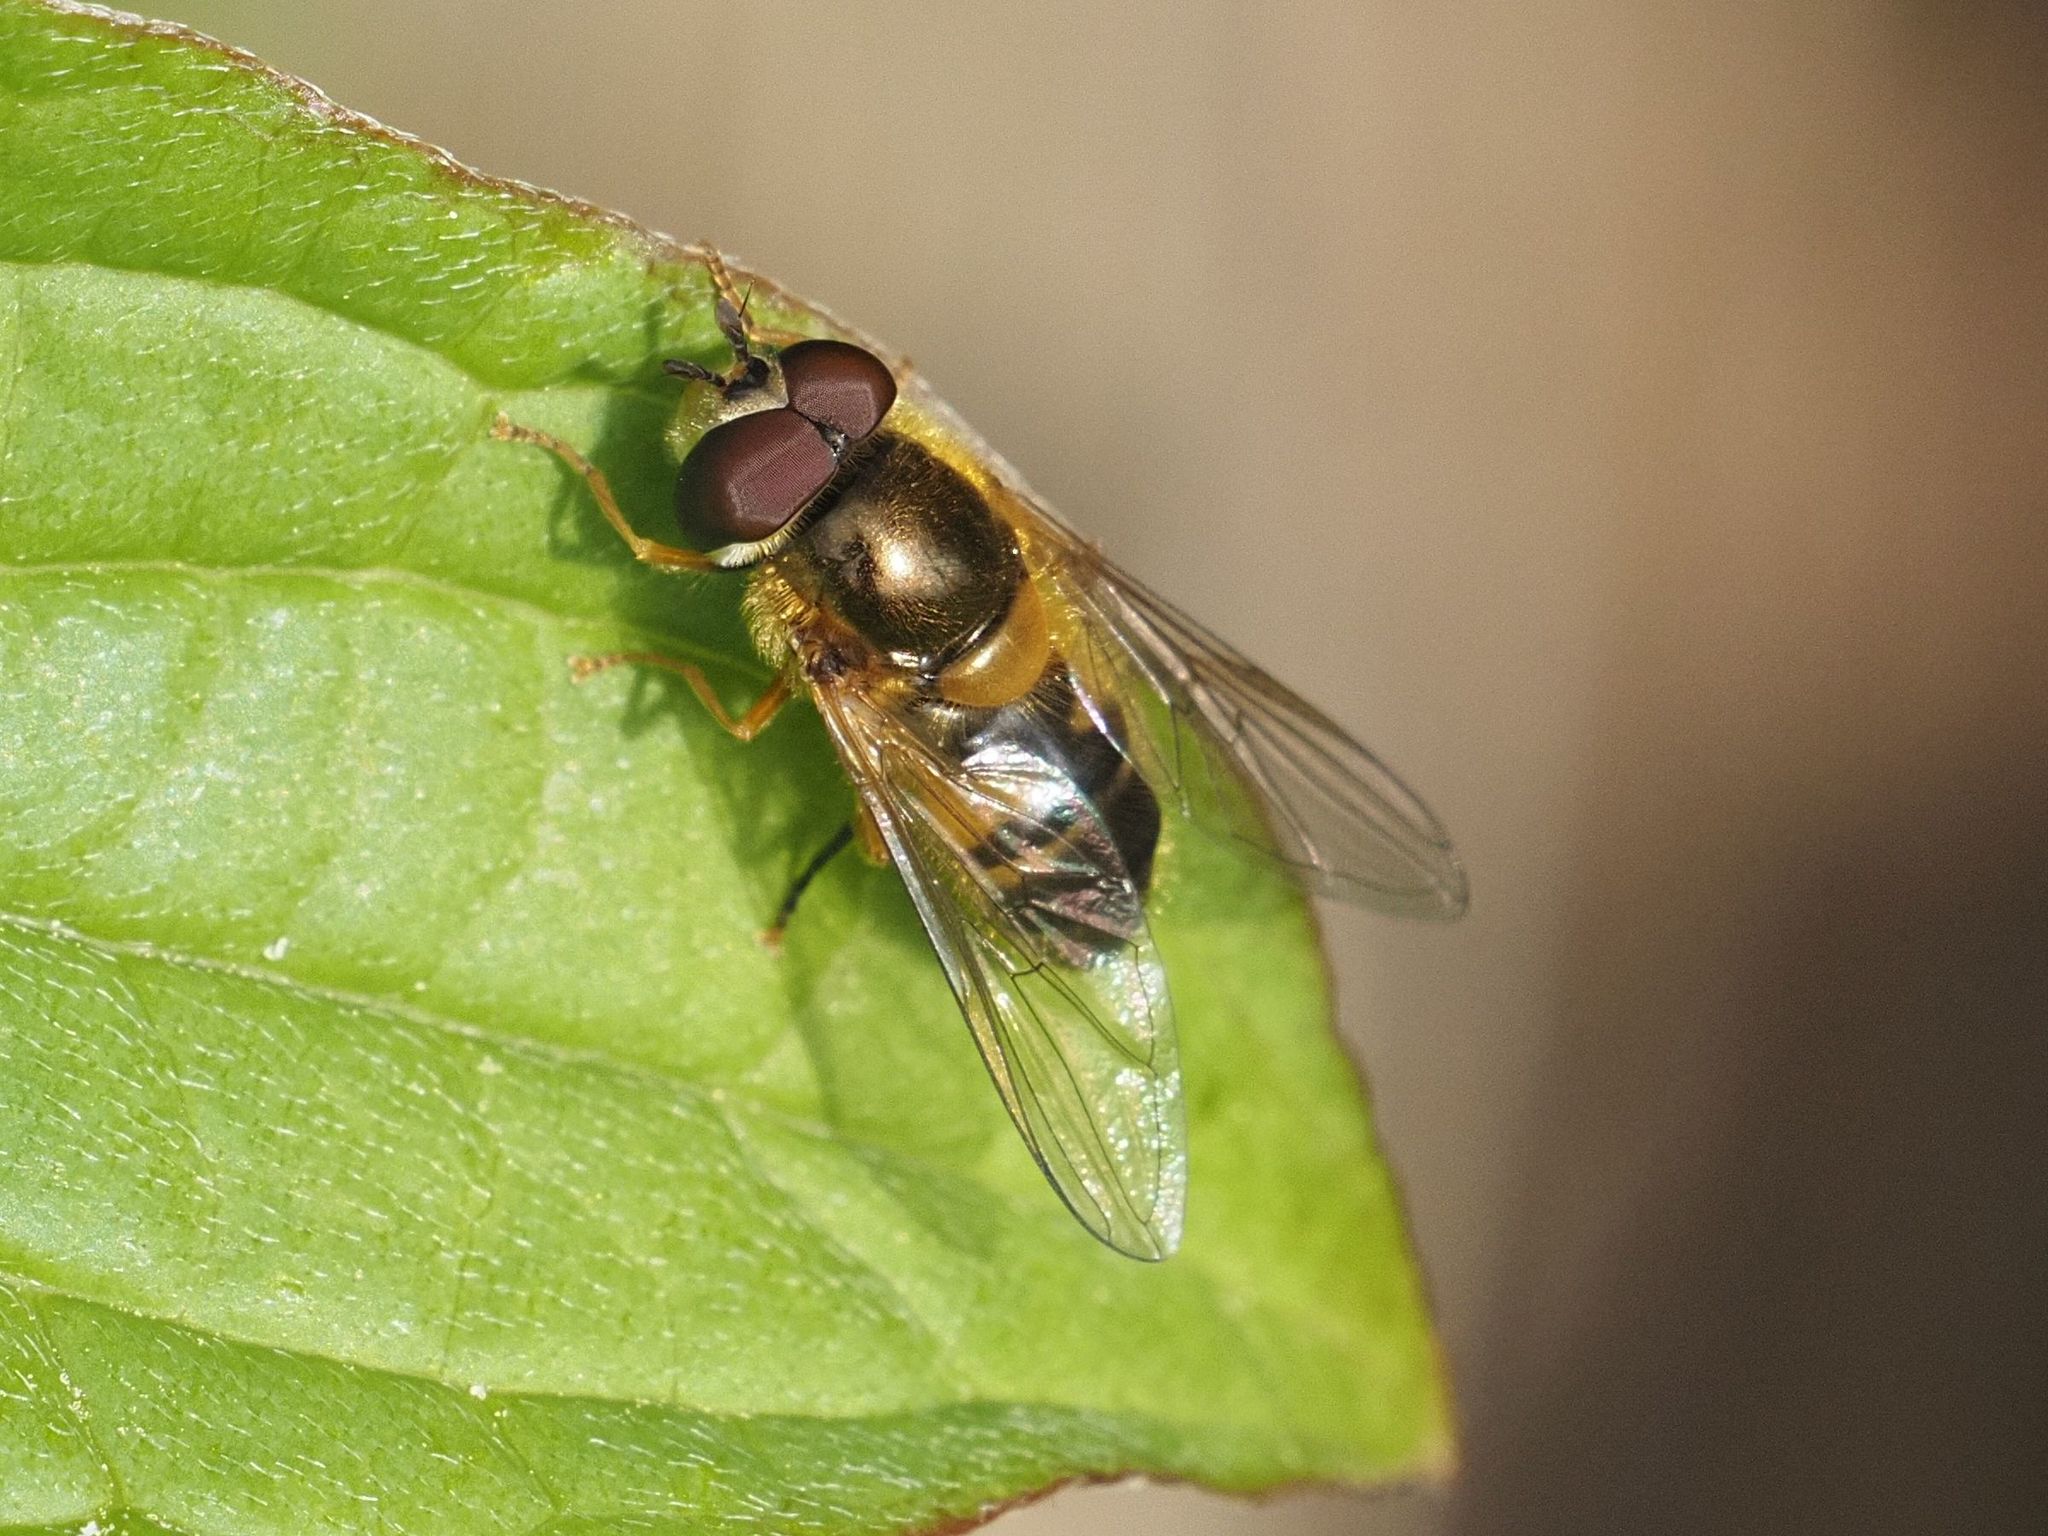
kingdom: Animalia
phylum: Arthropoda
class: Insecta
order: Diptera
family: Syrphidae
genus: Epistrophe
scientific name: Epistrophe eligans
